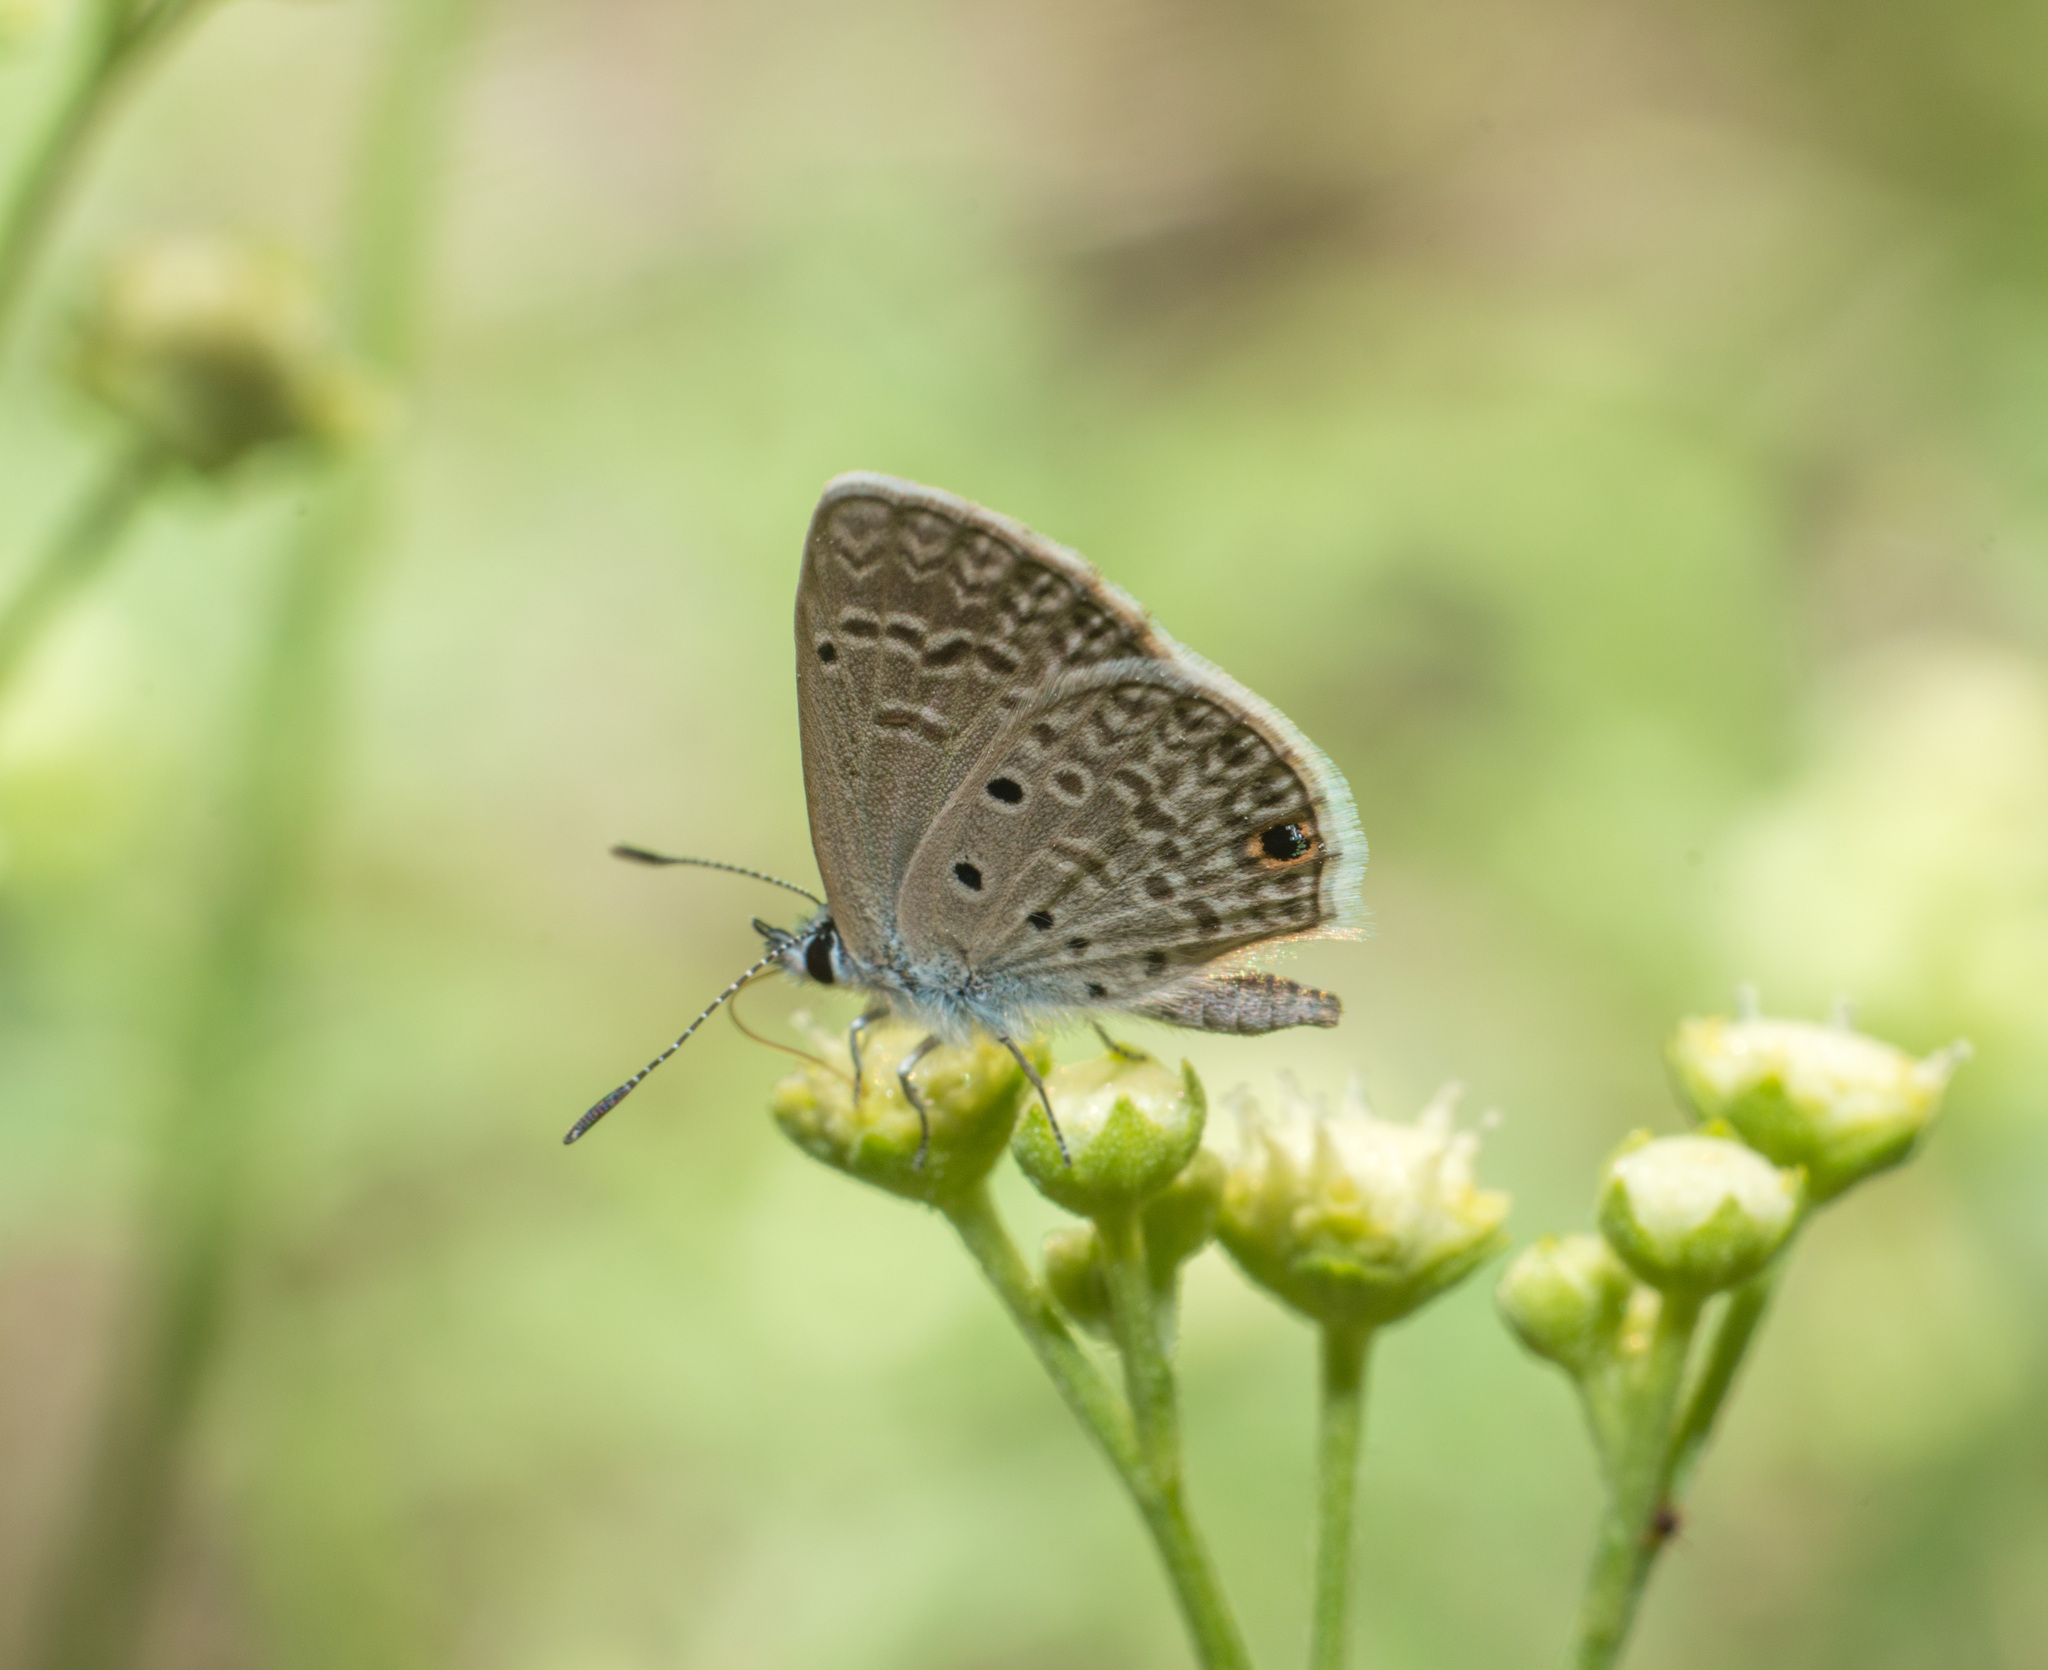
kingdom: Animalia
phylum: Arthropoda
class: Insecta
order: Lepidoptera
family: Lycaenidae
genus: Hemiargus
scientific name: Hemiargus hanno
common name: Common blue
